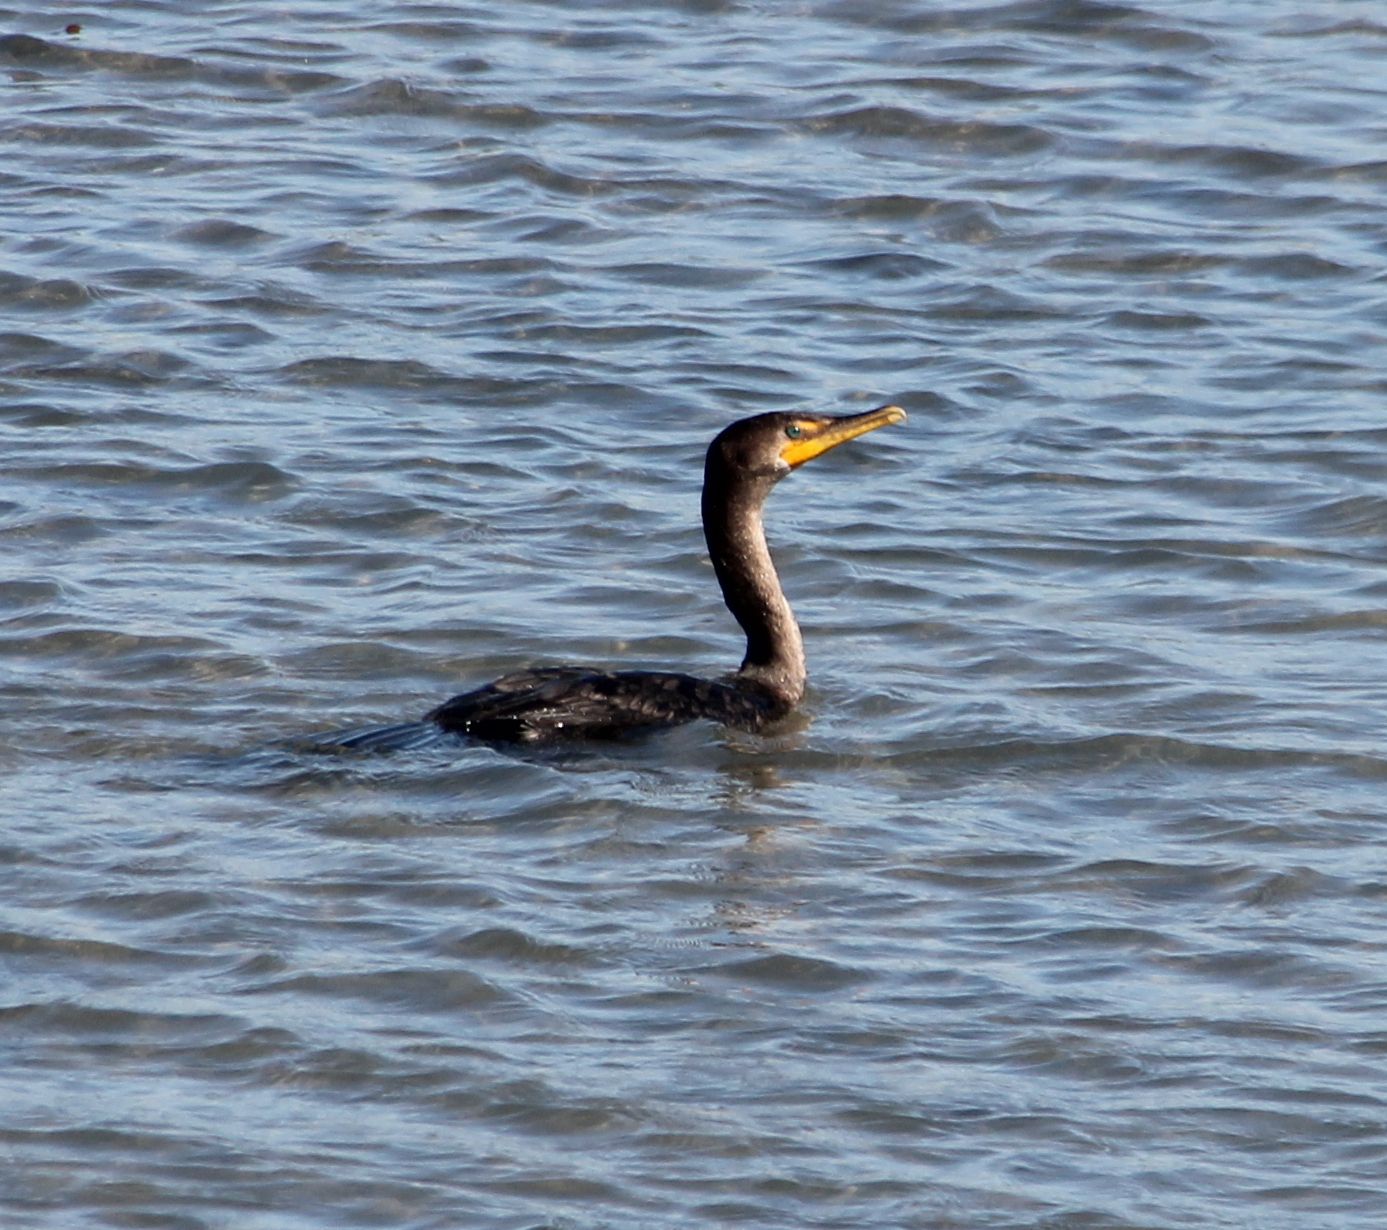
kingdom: Animalia
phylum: Chordata
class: Aves
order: Suliformes
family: Phalacrocoracidae
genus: Phalacrocorax
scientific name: Phalacrocorax auritus
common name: Double-crested cormorant
